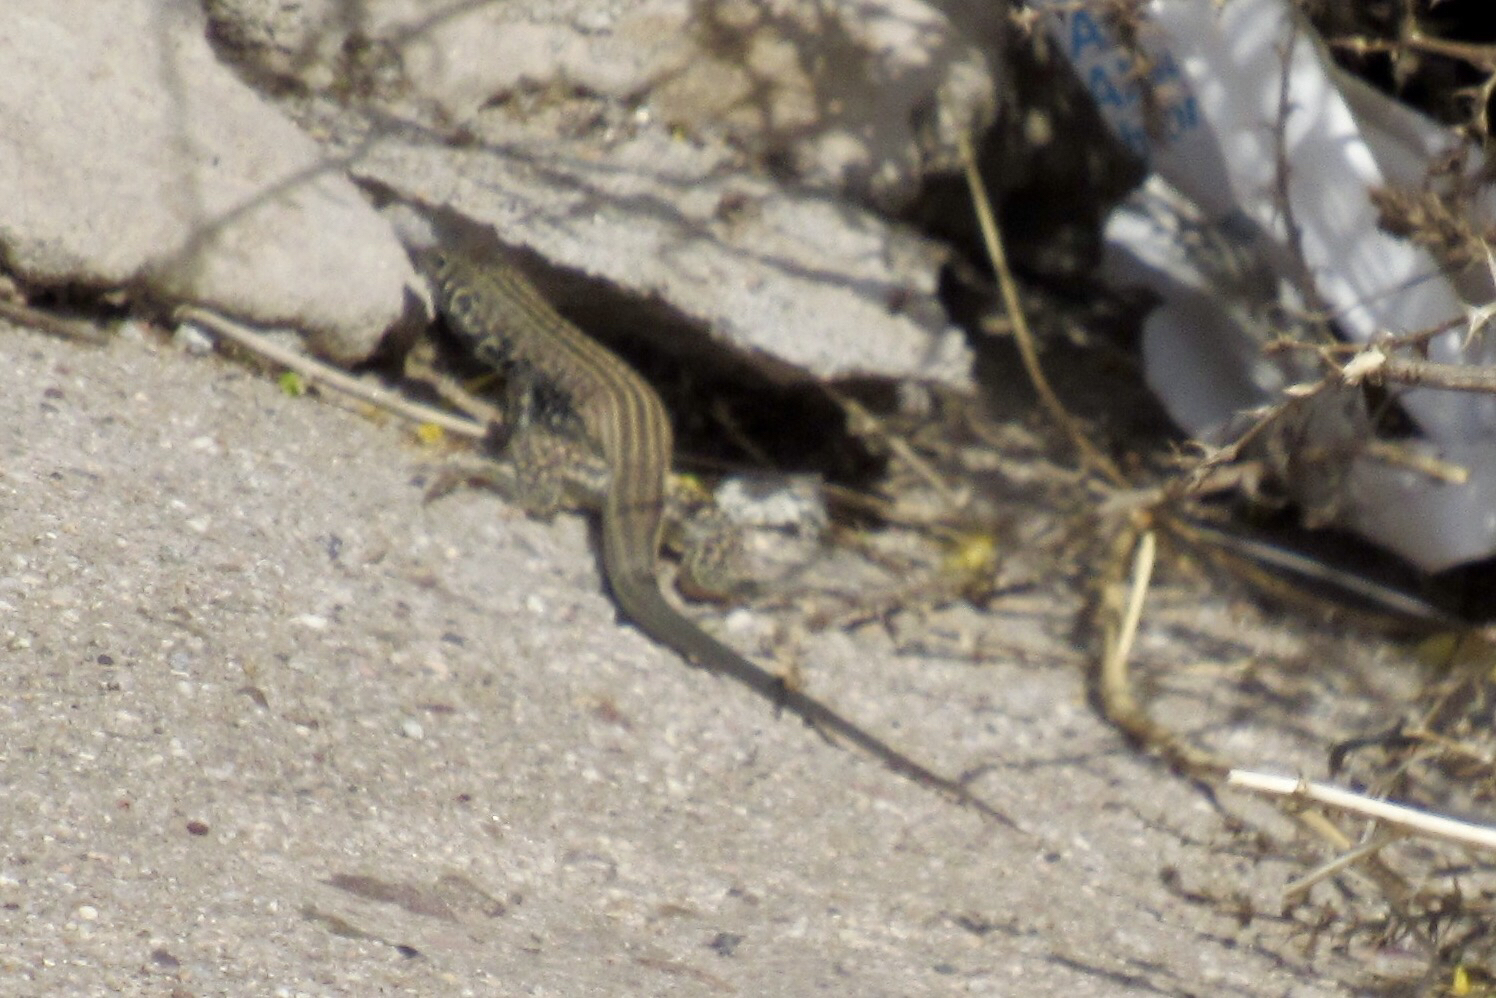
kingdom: Animalia
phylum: Chordata
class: Squamata
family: Teiidae
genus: Aspidoscelis
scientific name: Aspidoscelis tigris
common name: Tiger whiptail
